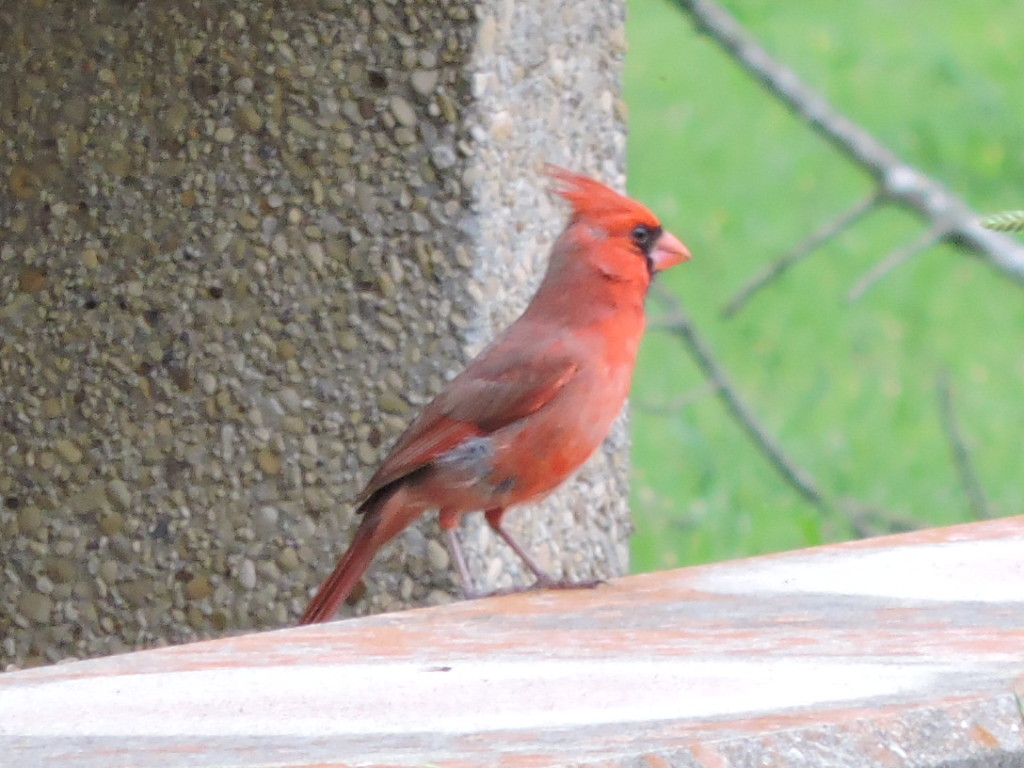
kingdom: Animalia
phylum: Chordata
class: Aves
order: Passeriformes
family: Cardinalidae
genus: Cardinalis
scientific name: Cardinalis cardinalis
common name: Northern cardinal
